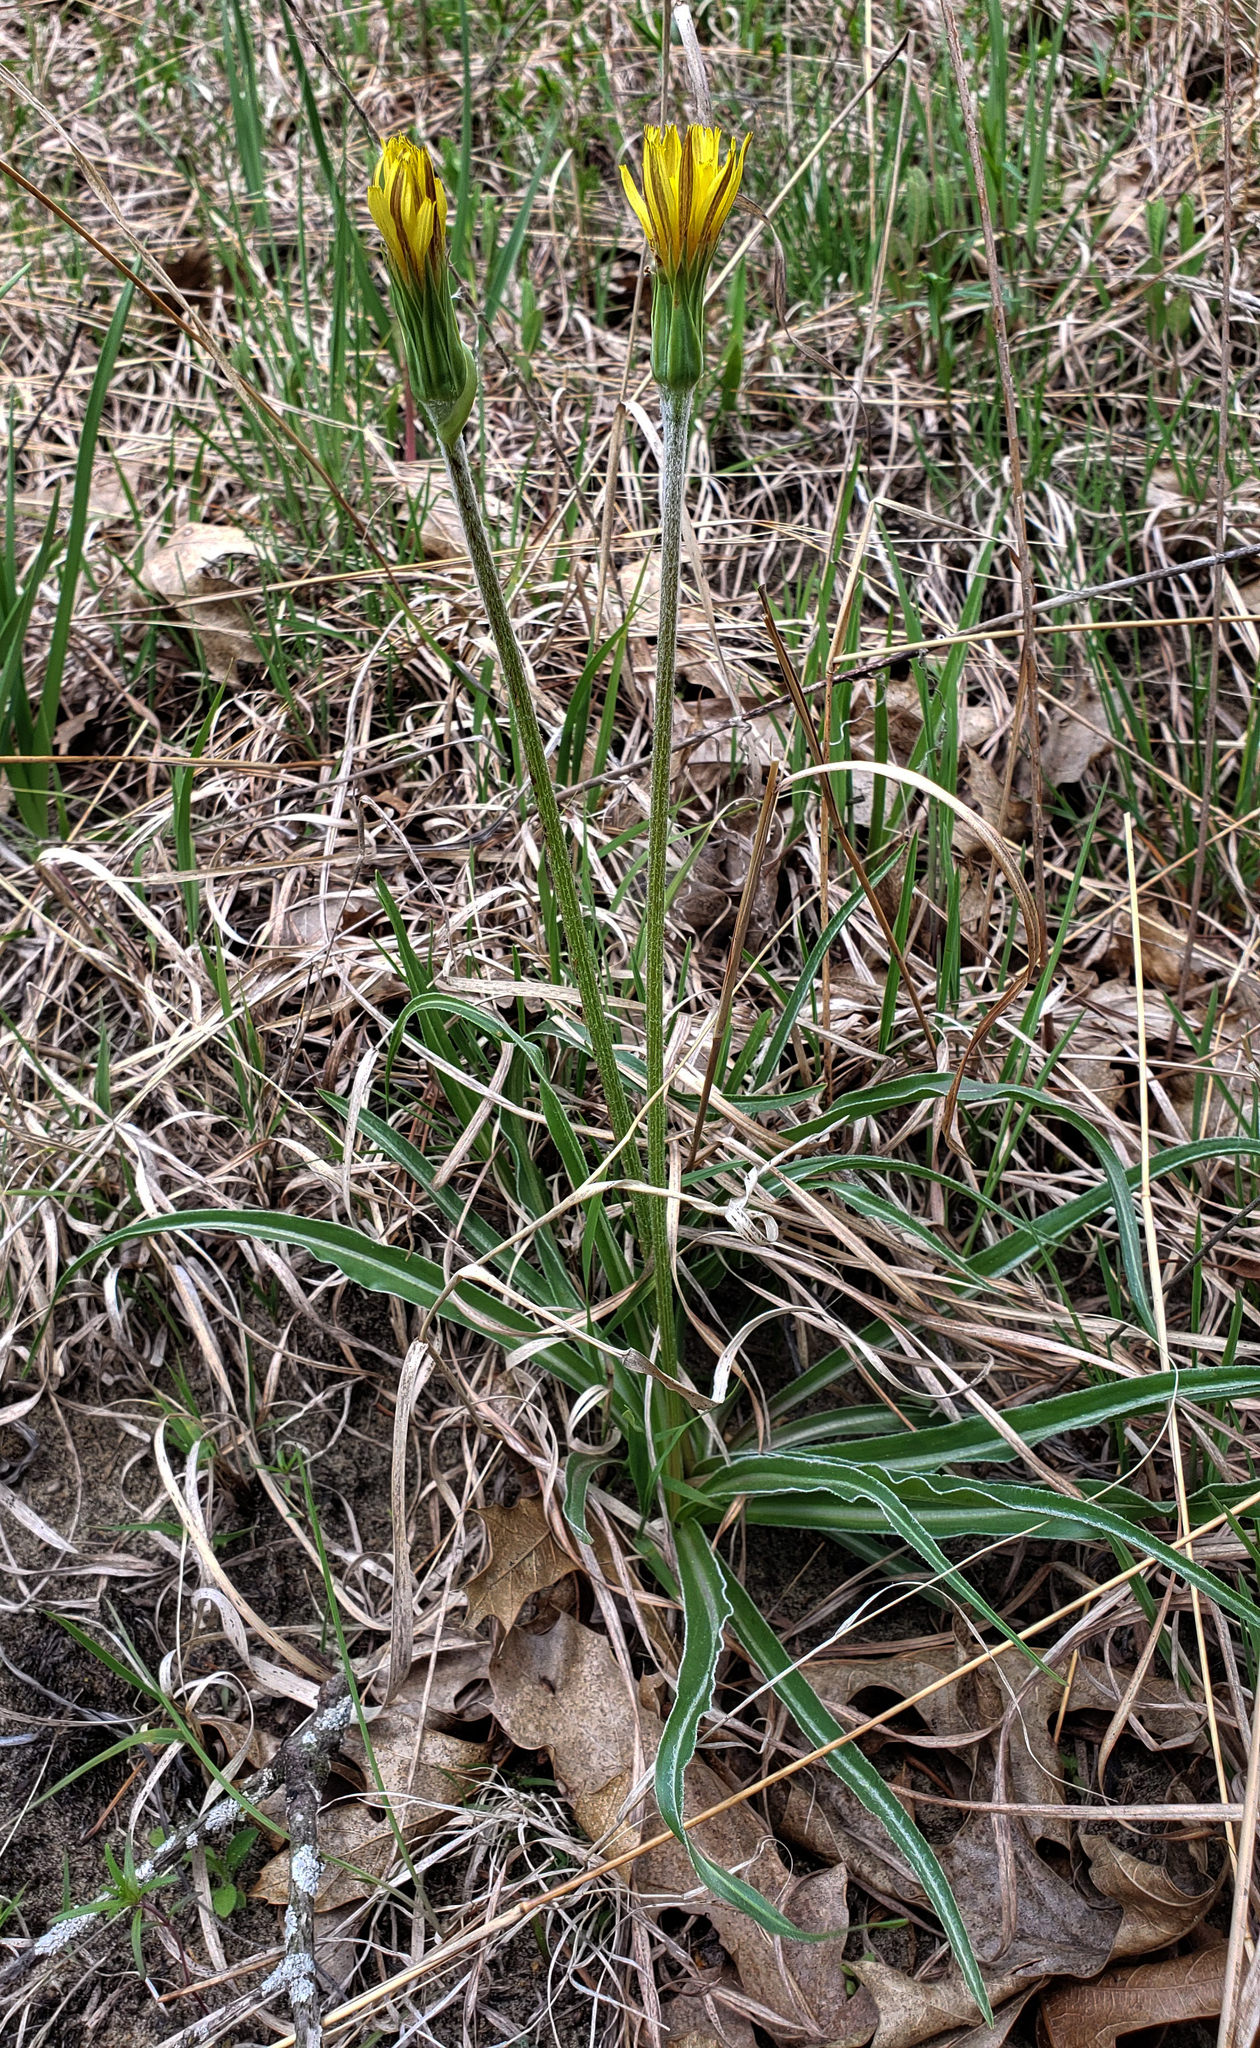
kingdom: Plantae
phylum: Tracheophyta
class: Magnoliopsida
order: Asterales
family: Asteraceae
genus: Microseris
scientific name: Microseris cuspidata
